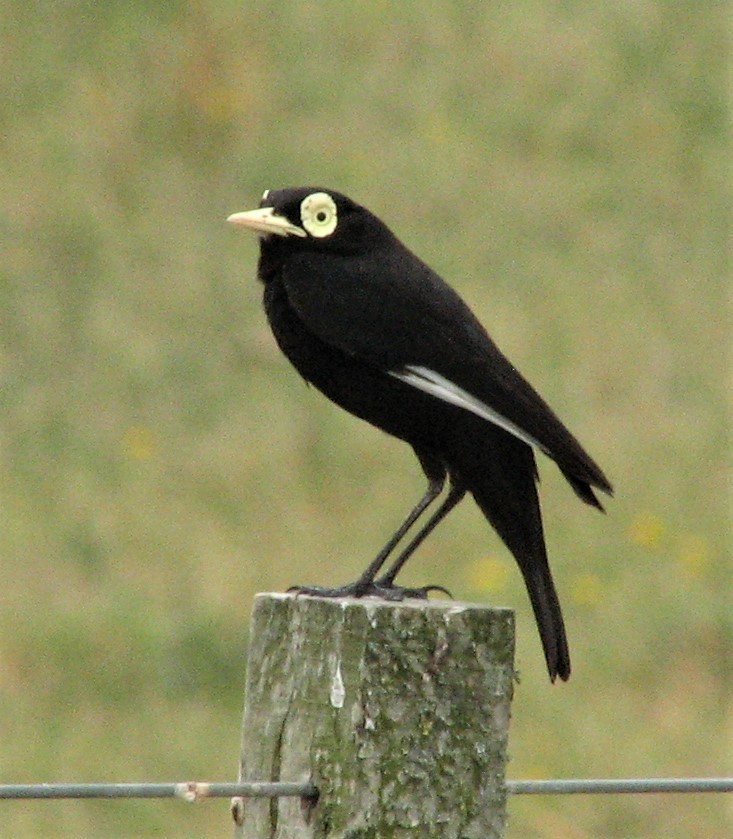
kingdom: Animalia
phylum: Chordata
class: Aves
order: Passeriformes
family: Tyrannidae
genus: Hymenops
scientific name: Hymenops perspicillatus
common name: Spectacled tyrant
